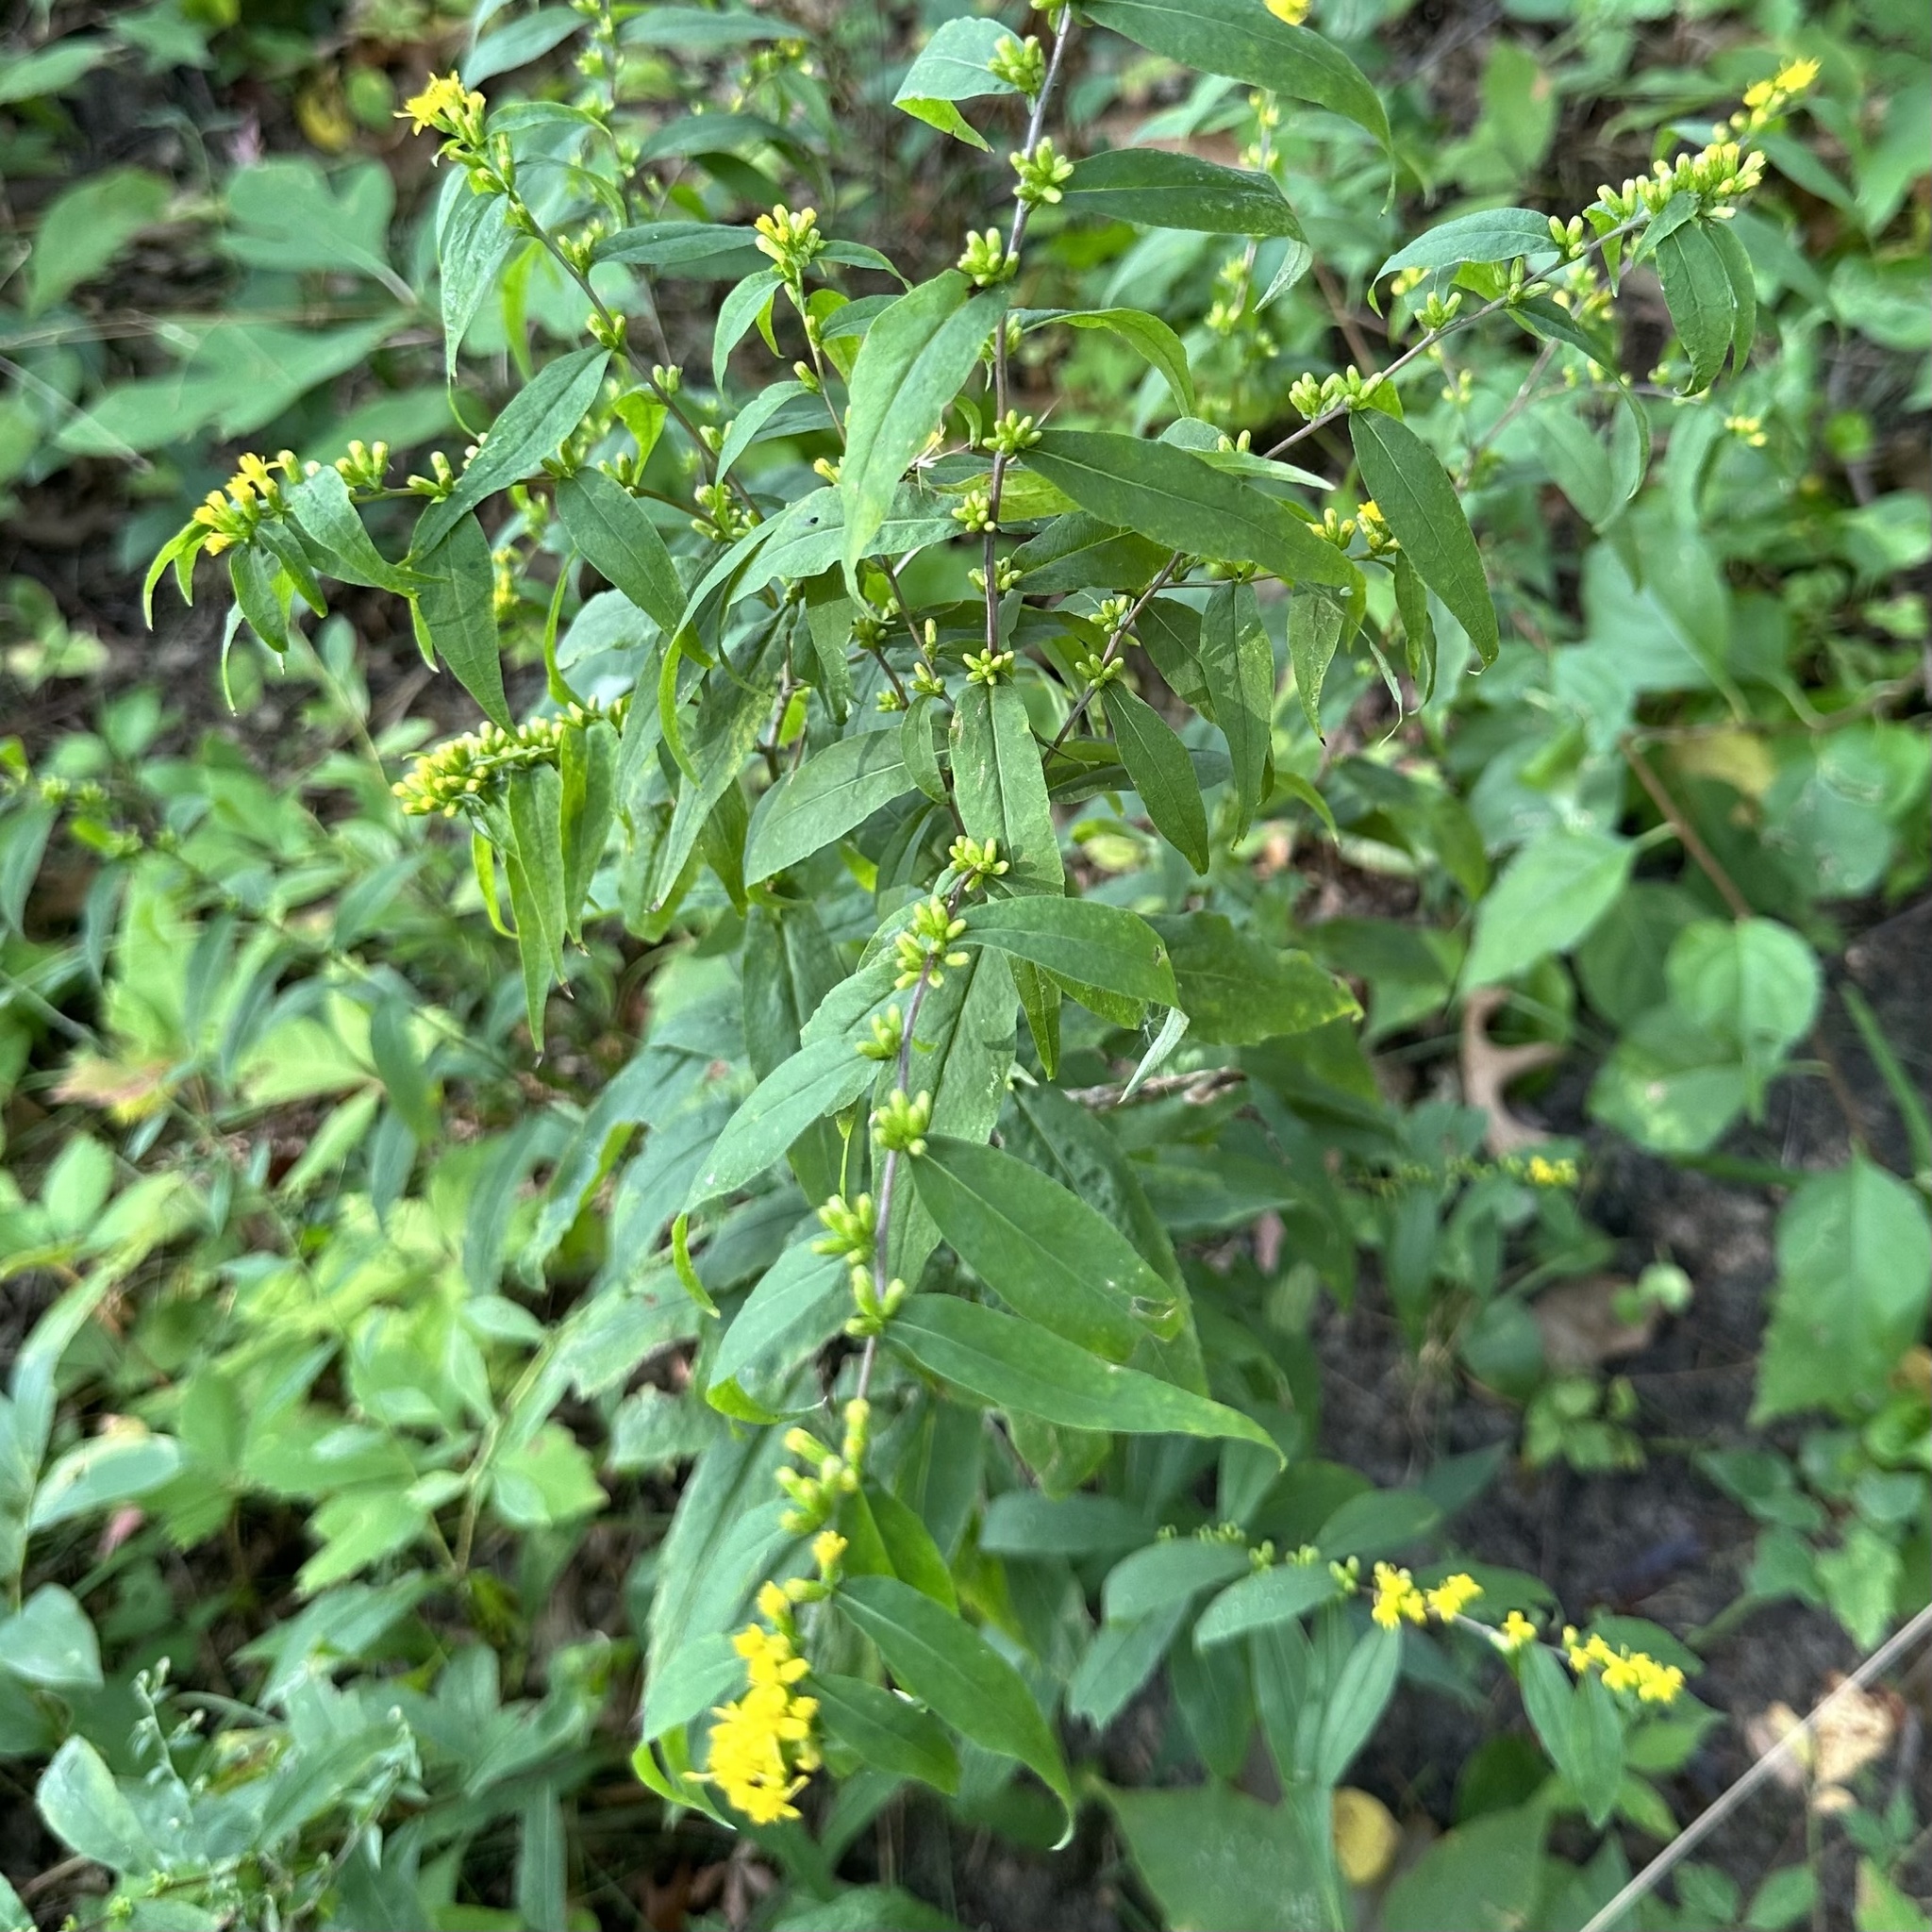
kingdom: Plantae
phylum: Tracheophyta
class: Magnoliopsida
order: Asterales
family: Asteraceae
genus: Solidago
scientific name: Solidago caesia
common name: Woodland goldenrod
